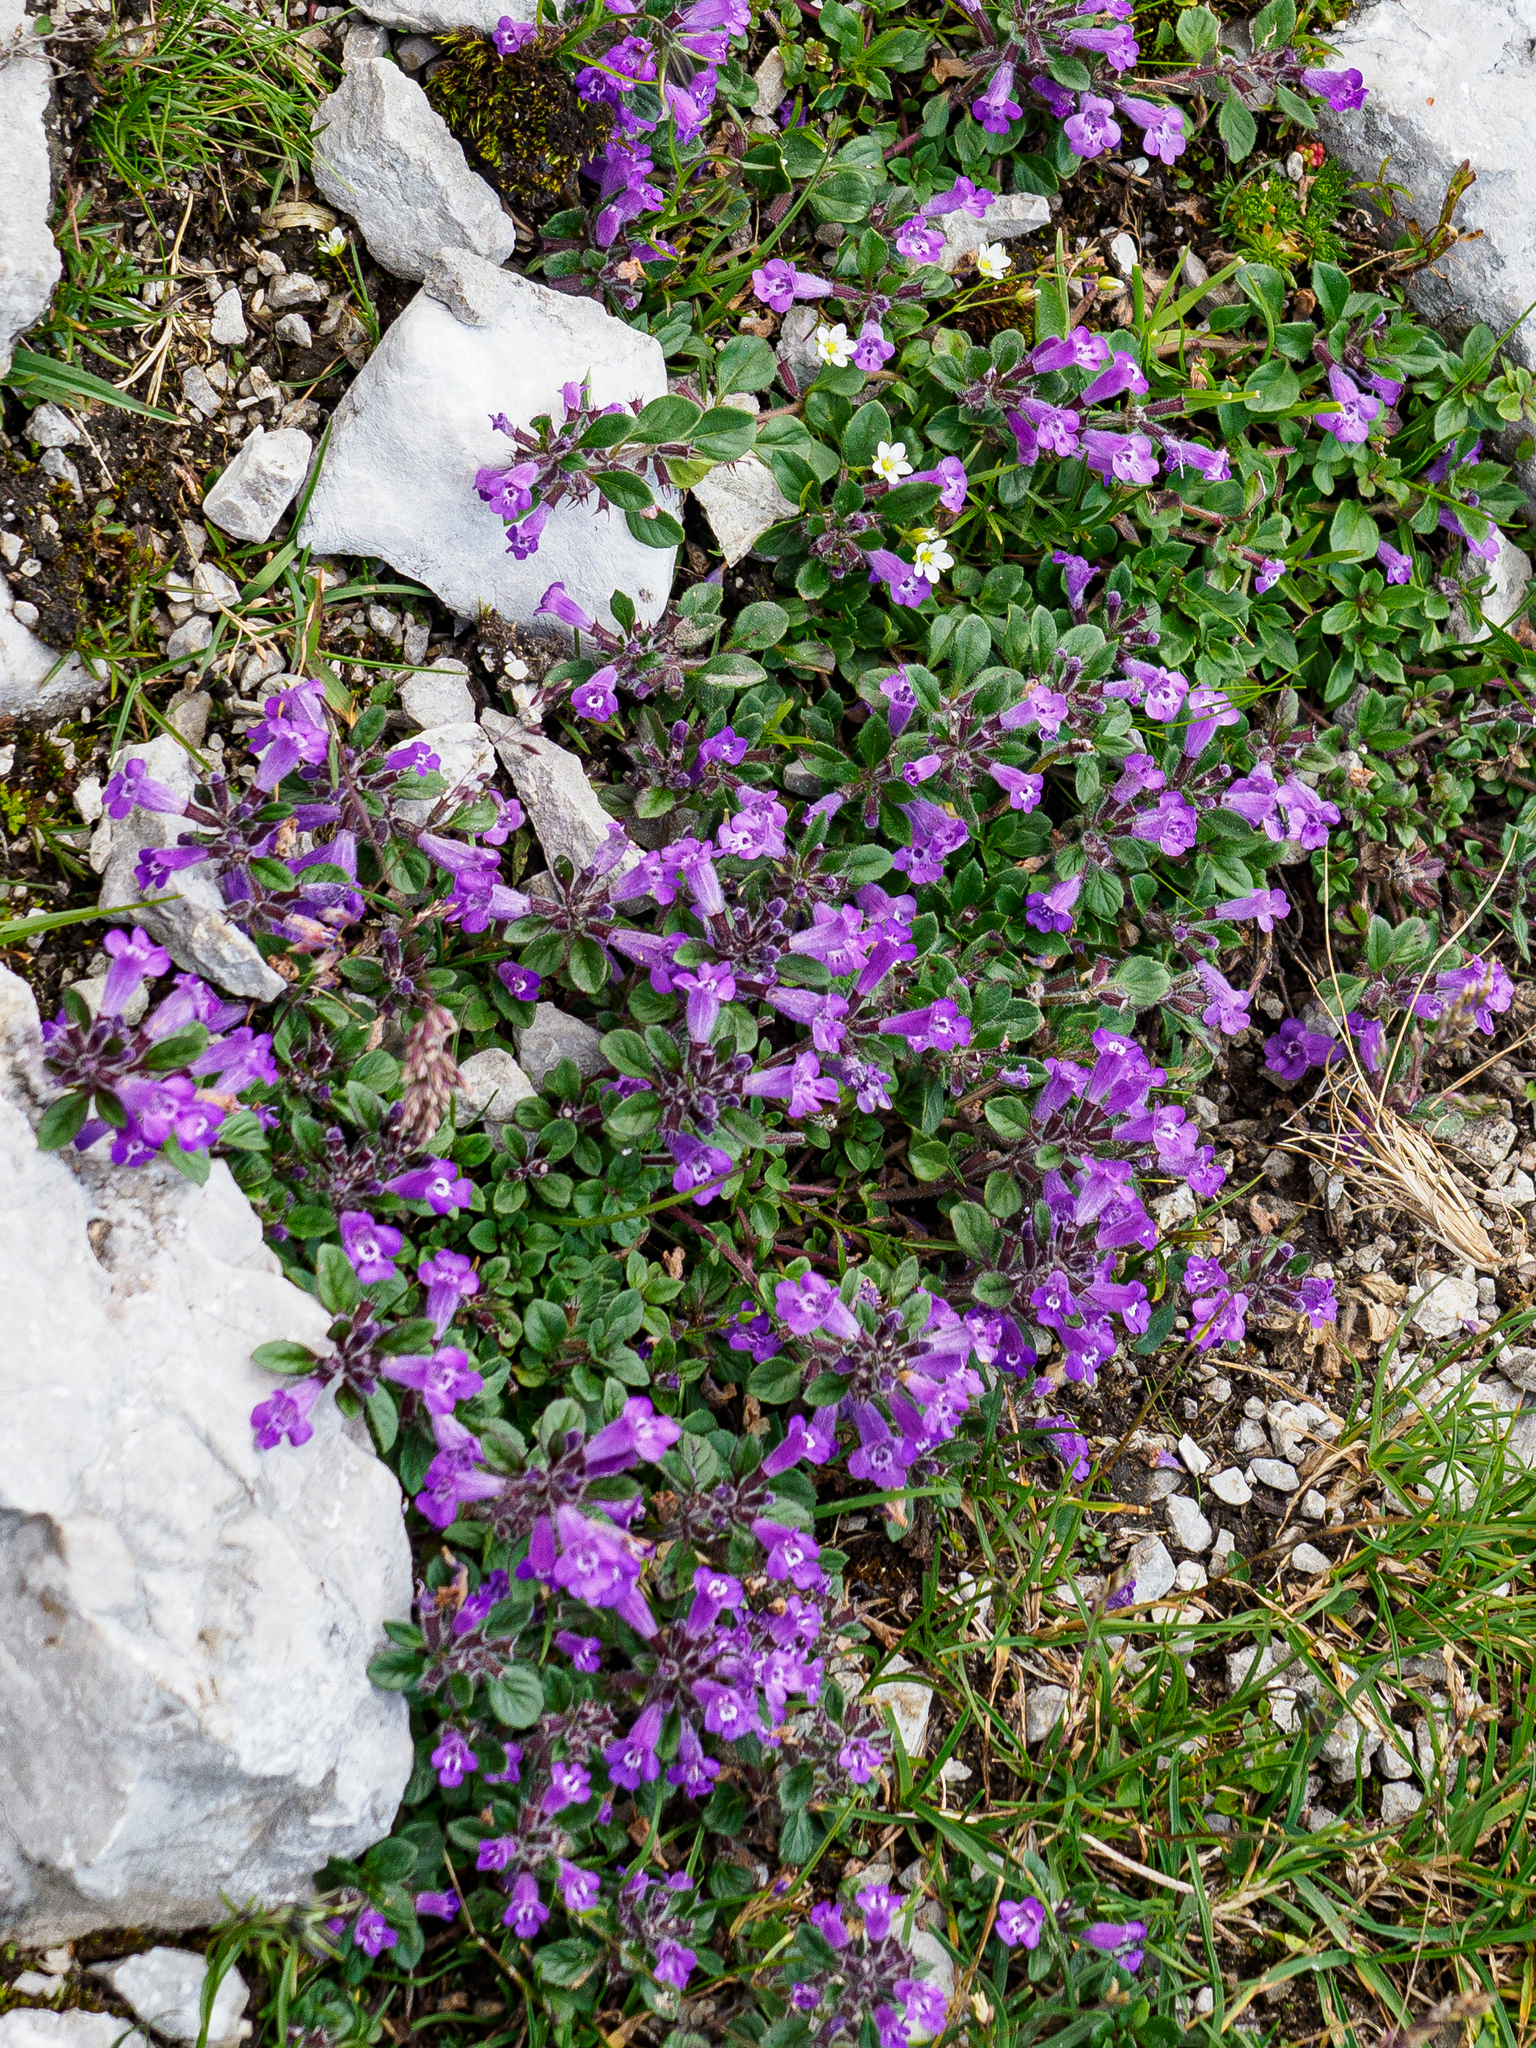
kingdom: Plantae
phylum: Tracheophyta
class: Magnoliopsida
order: Lamiales
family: Lamiaceae
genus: Clinopodium
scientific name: Clinopodium alpinum
